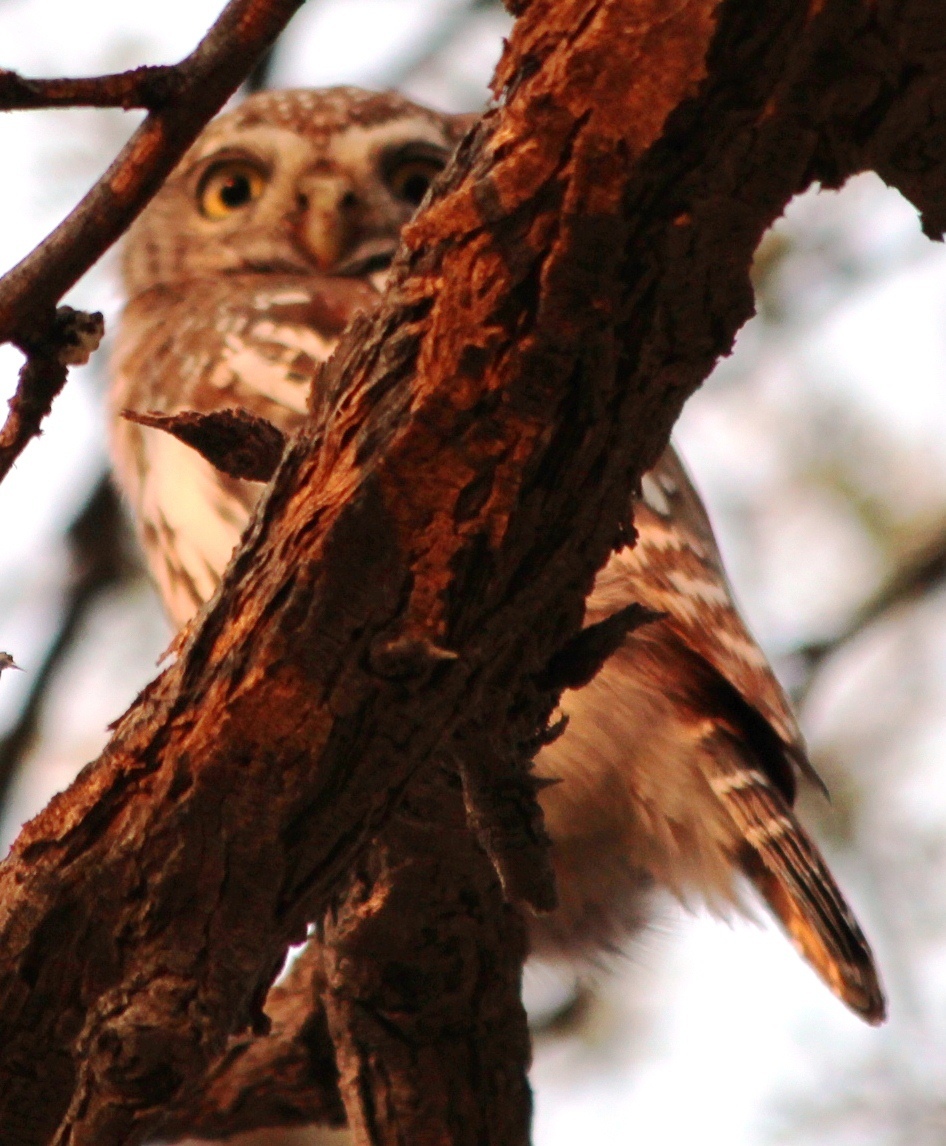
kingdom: Animalia
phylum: Chordata
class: Aves
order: Strigiformes
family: Strigidae
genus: Glaucidium
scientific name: Glaucidium perlatum
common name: Pearl-spotted owlet
